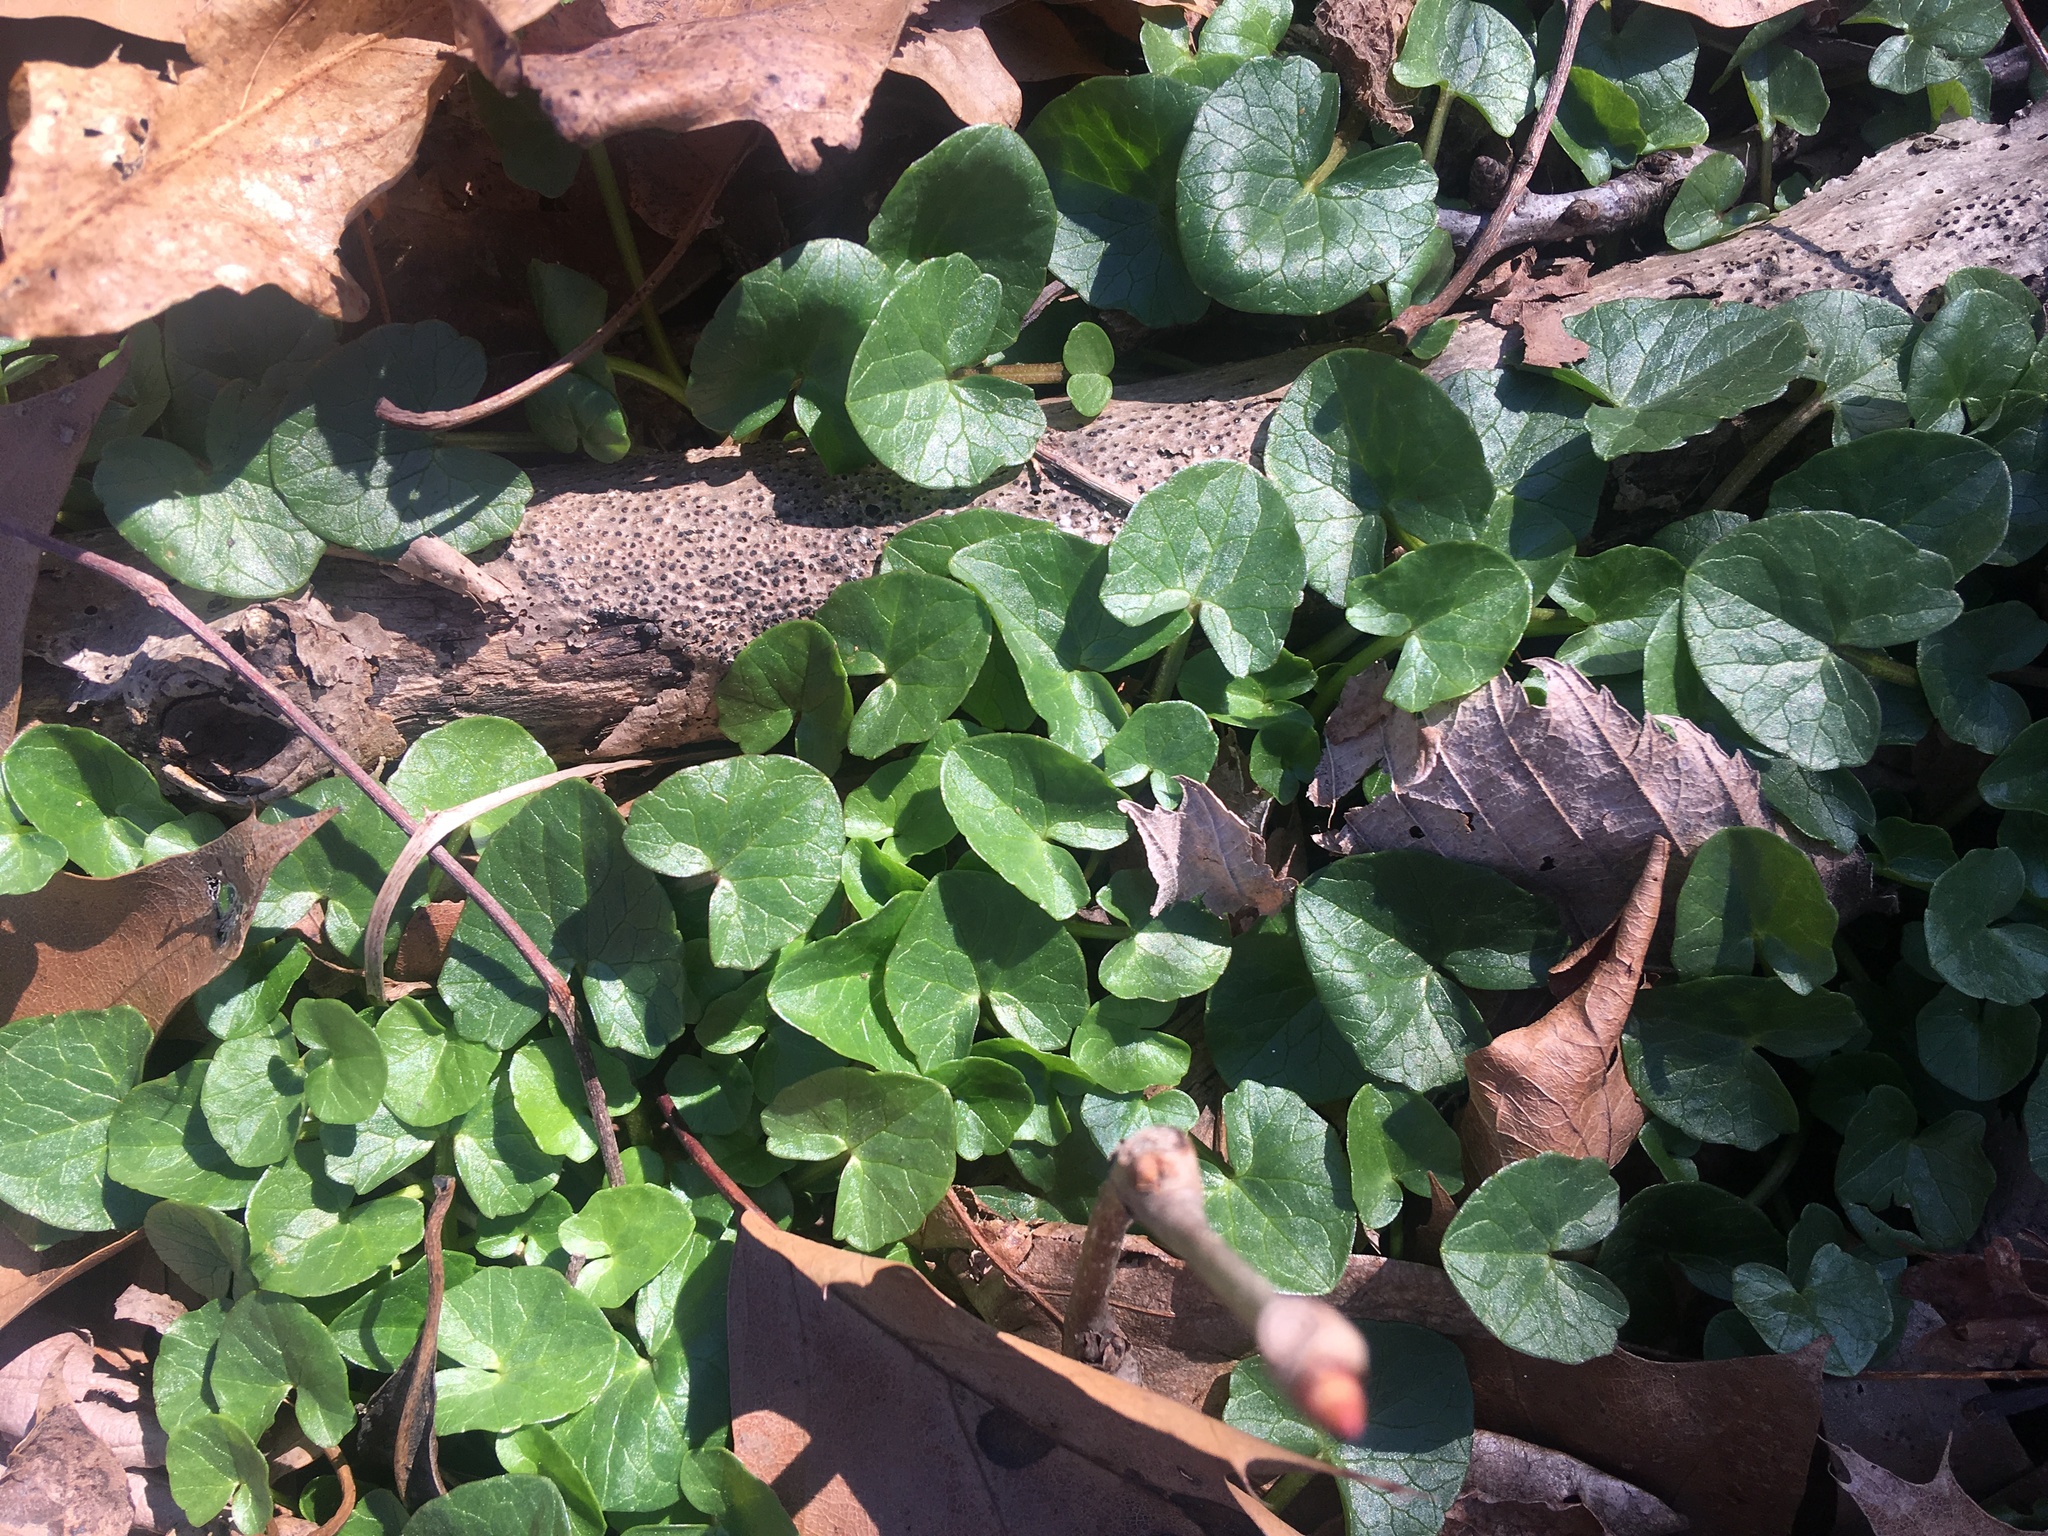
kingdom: Plantae
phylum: Tracheophyta
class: Magnoliopsida
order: Ranunculales
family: Ranunculaceae
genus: Ficaria
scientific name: Ficaria verna
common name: Lesser celandine
